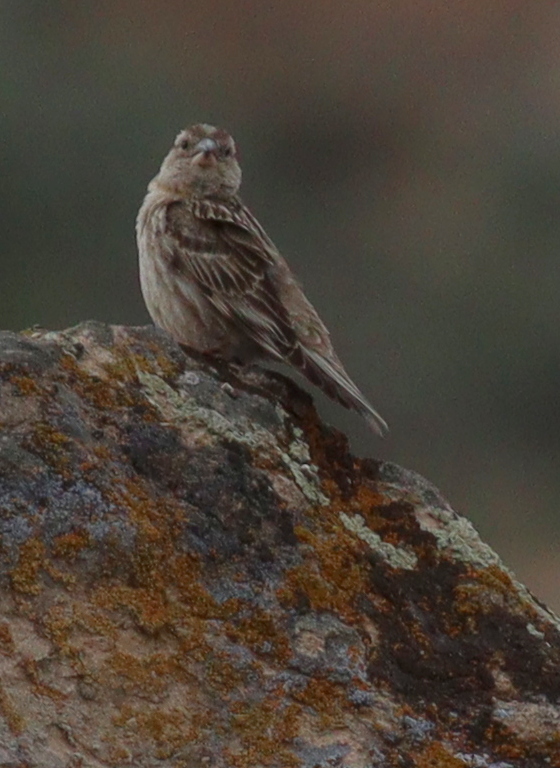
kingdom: Animalia
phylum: Chordata
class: Aves
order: Passeriformes
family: Passeridae
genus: Petronia
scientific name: Petronia petronia
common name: Rock sparrow
